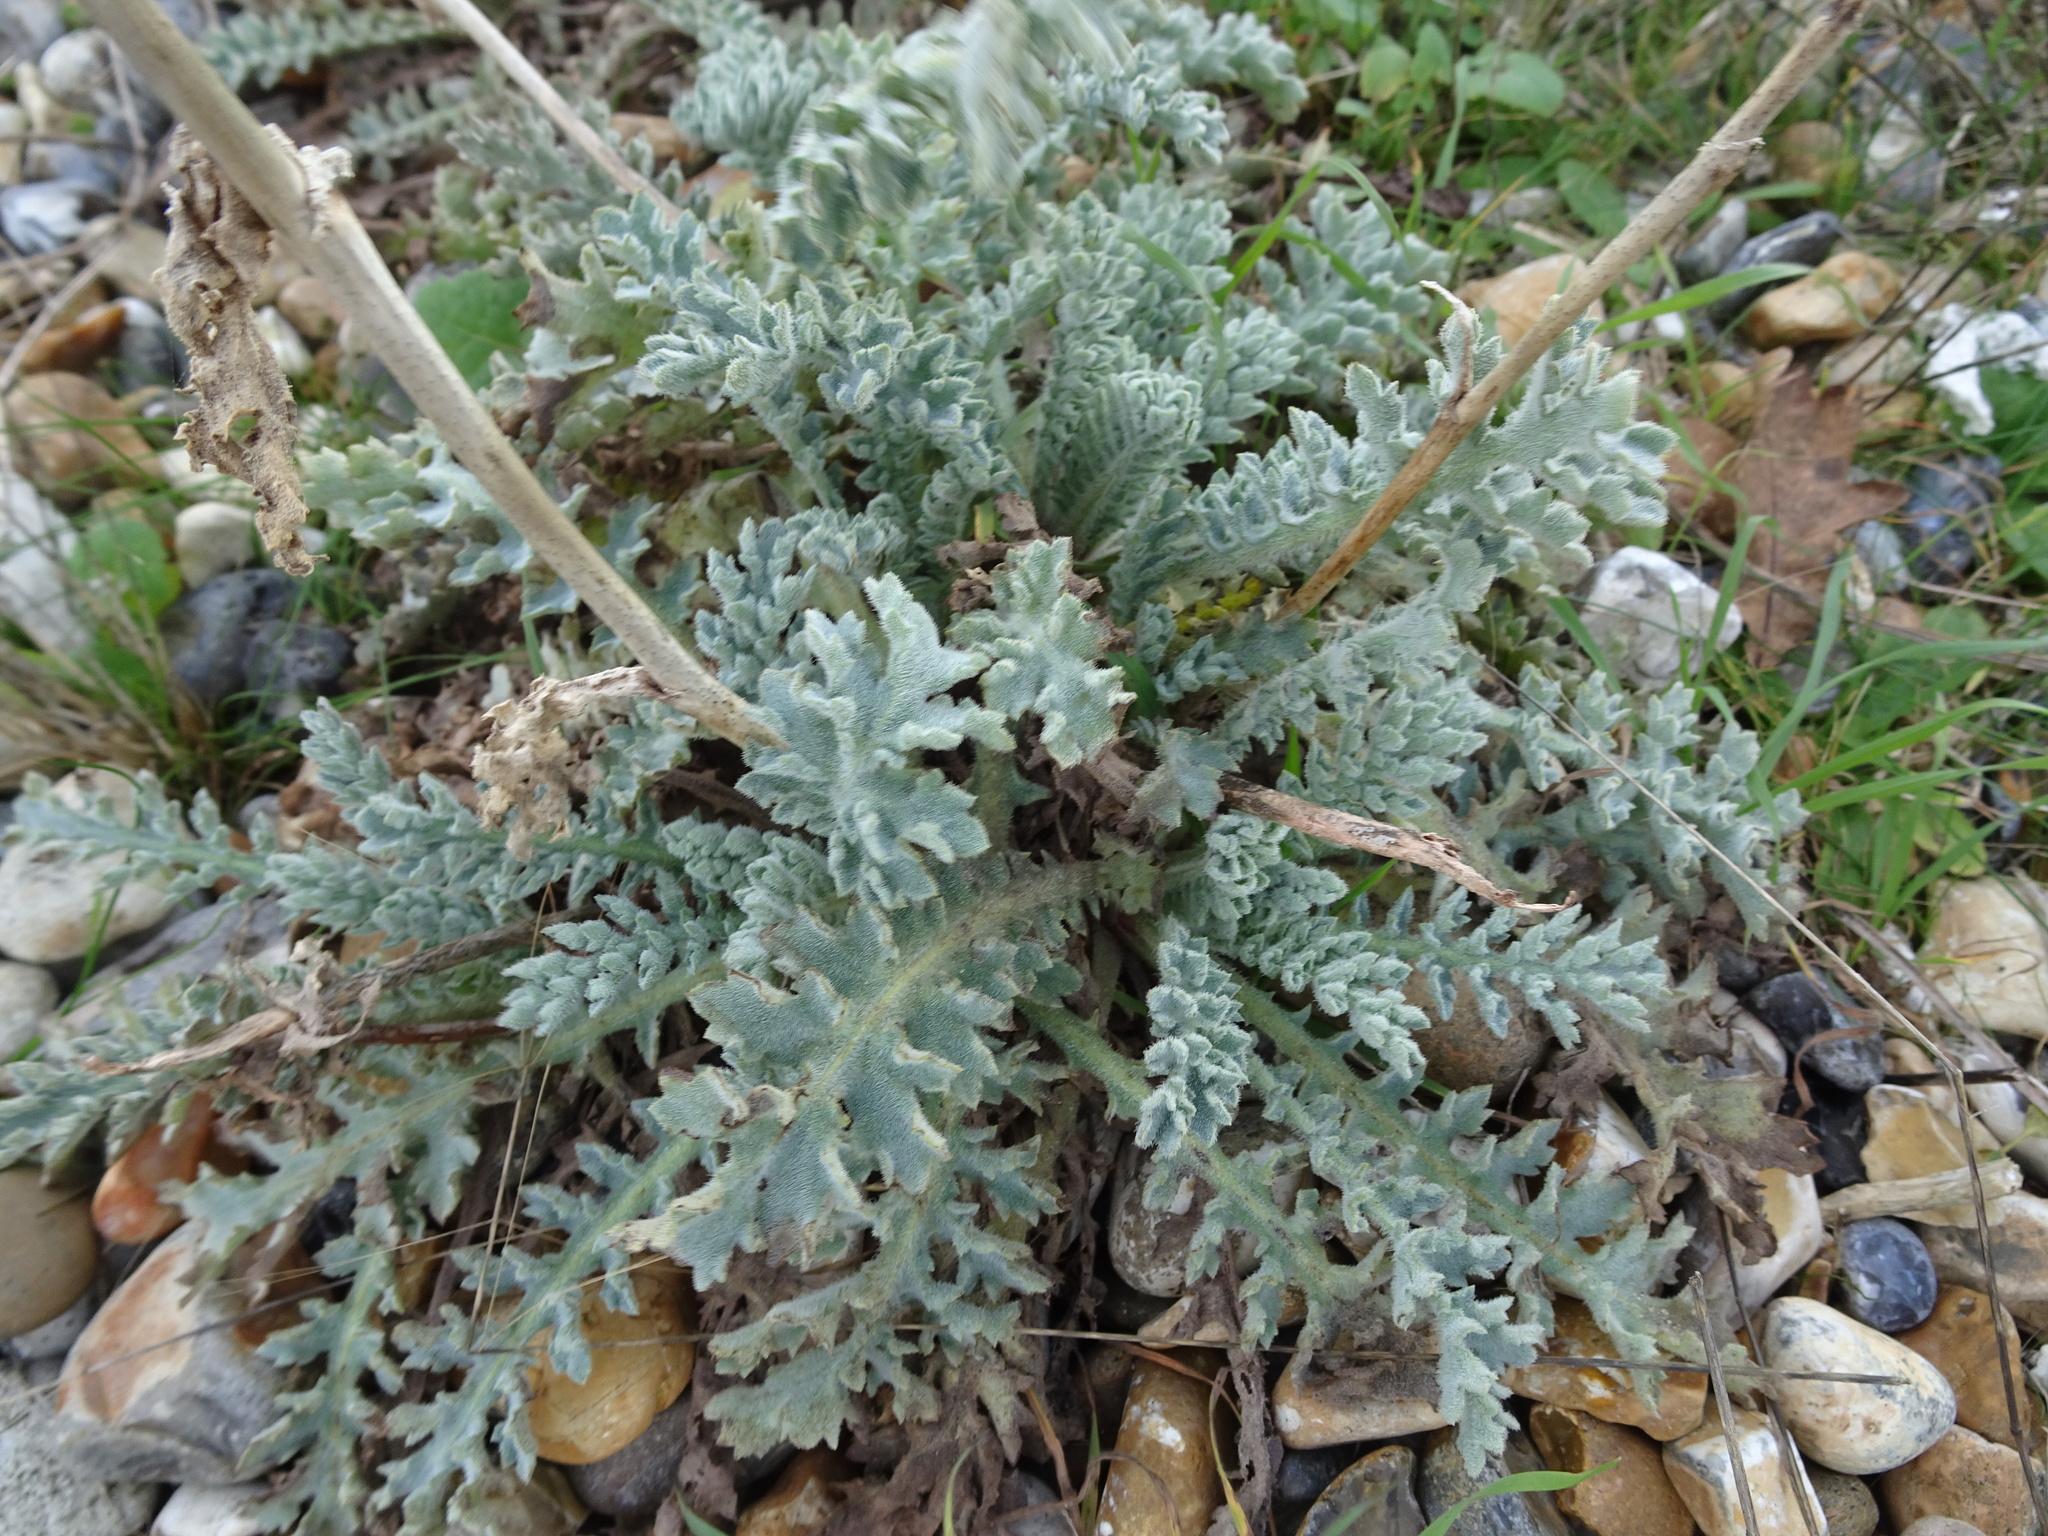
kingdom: Plantae
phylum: Tracheophyta
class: Magnoliopsida
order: Ranunculales
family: Papaveraceae
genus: Glaucium
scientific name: Glaucium flavum
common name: Yellow horned-poppy
